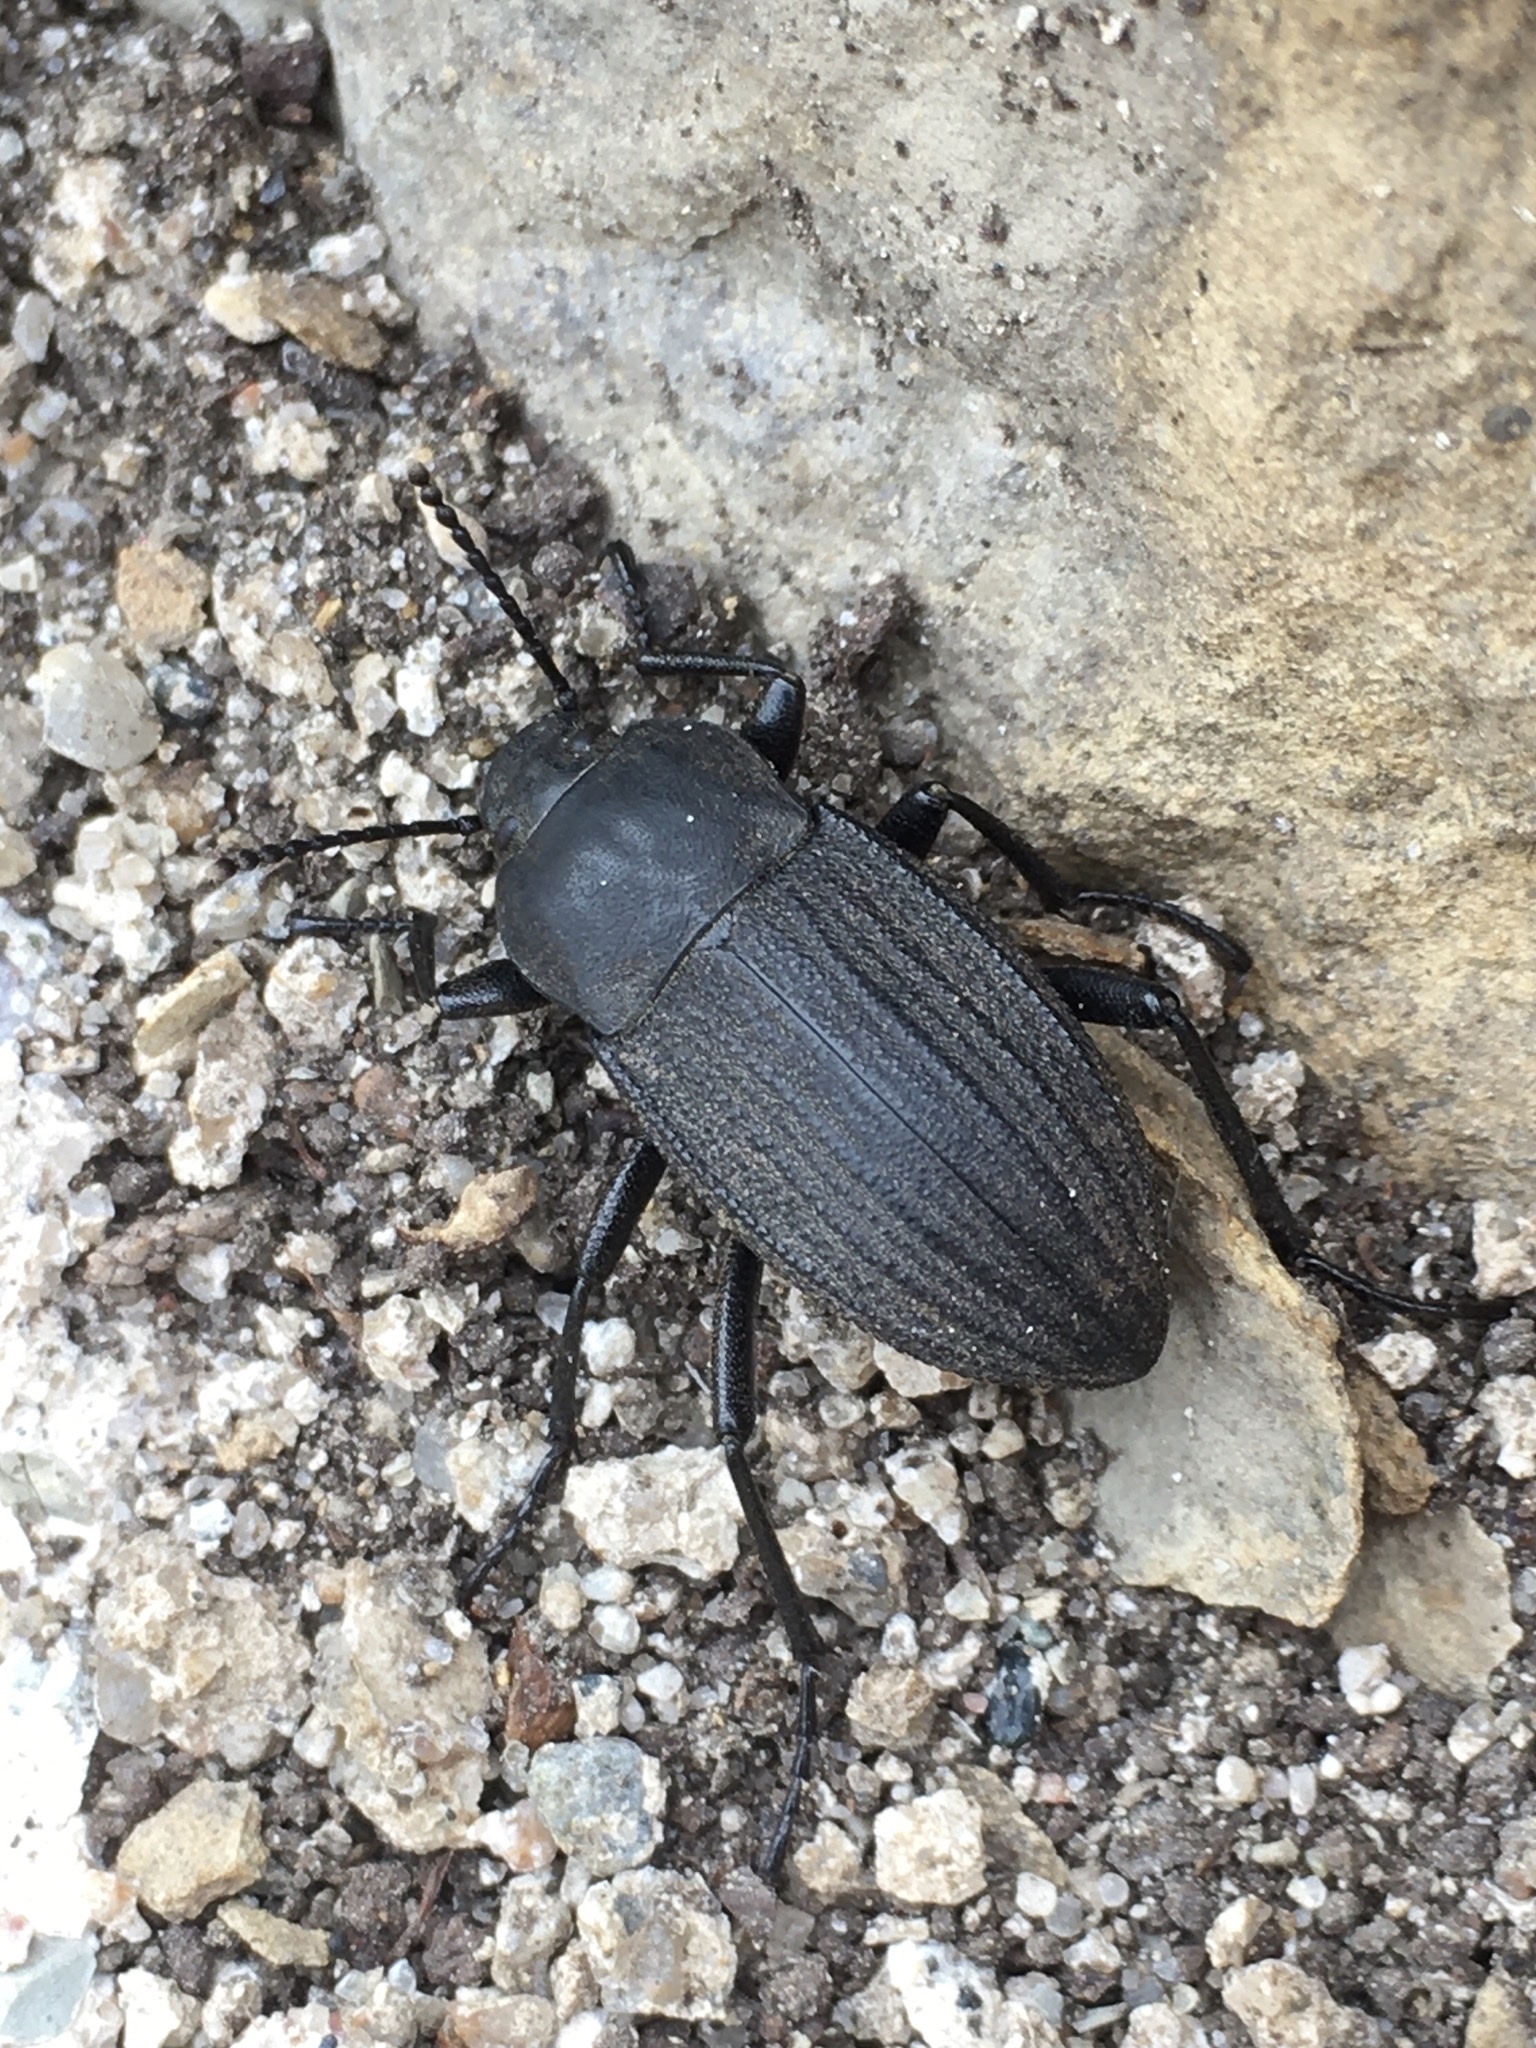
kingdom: Animalia
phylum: Arthropoda
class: Insecta
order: Coleoptera
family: Tenebrionidae
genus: Eleodes
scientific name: Eleodes tricostata
